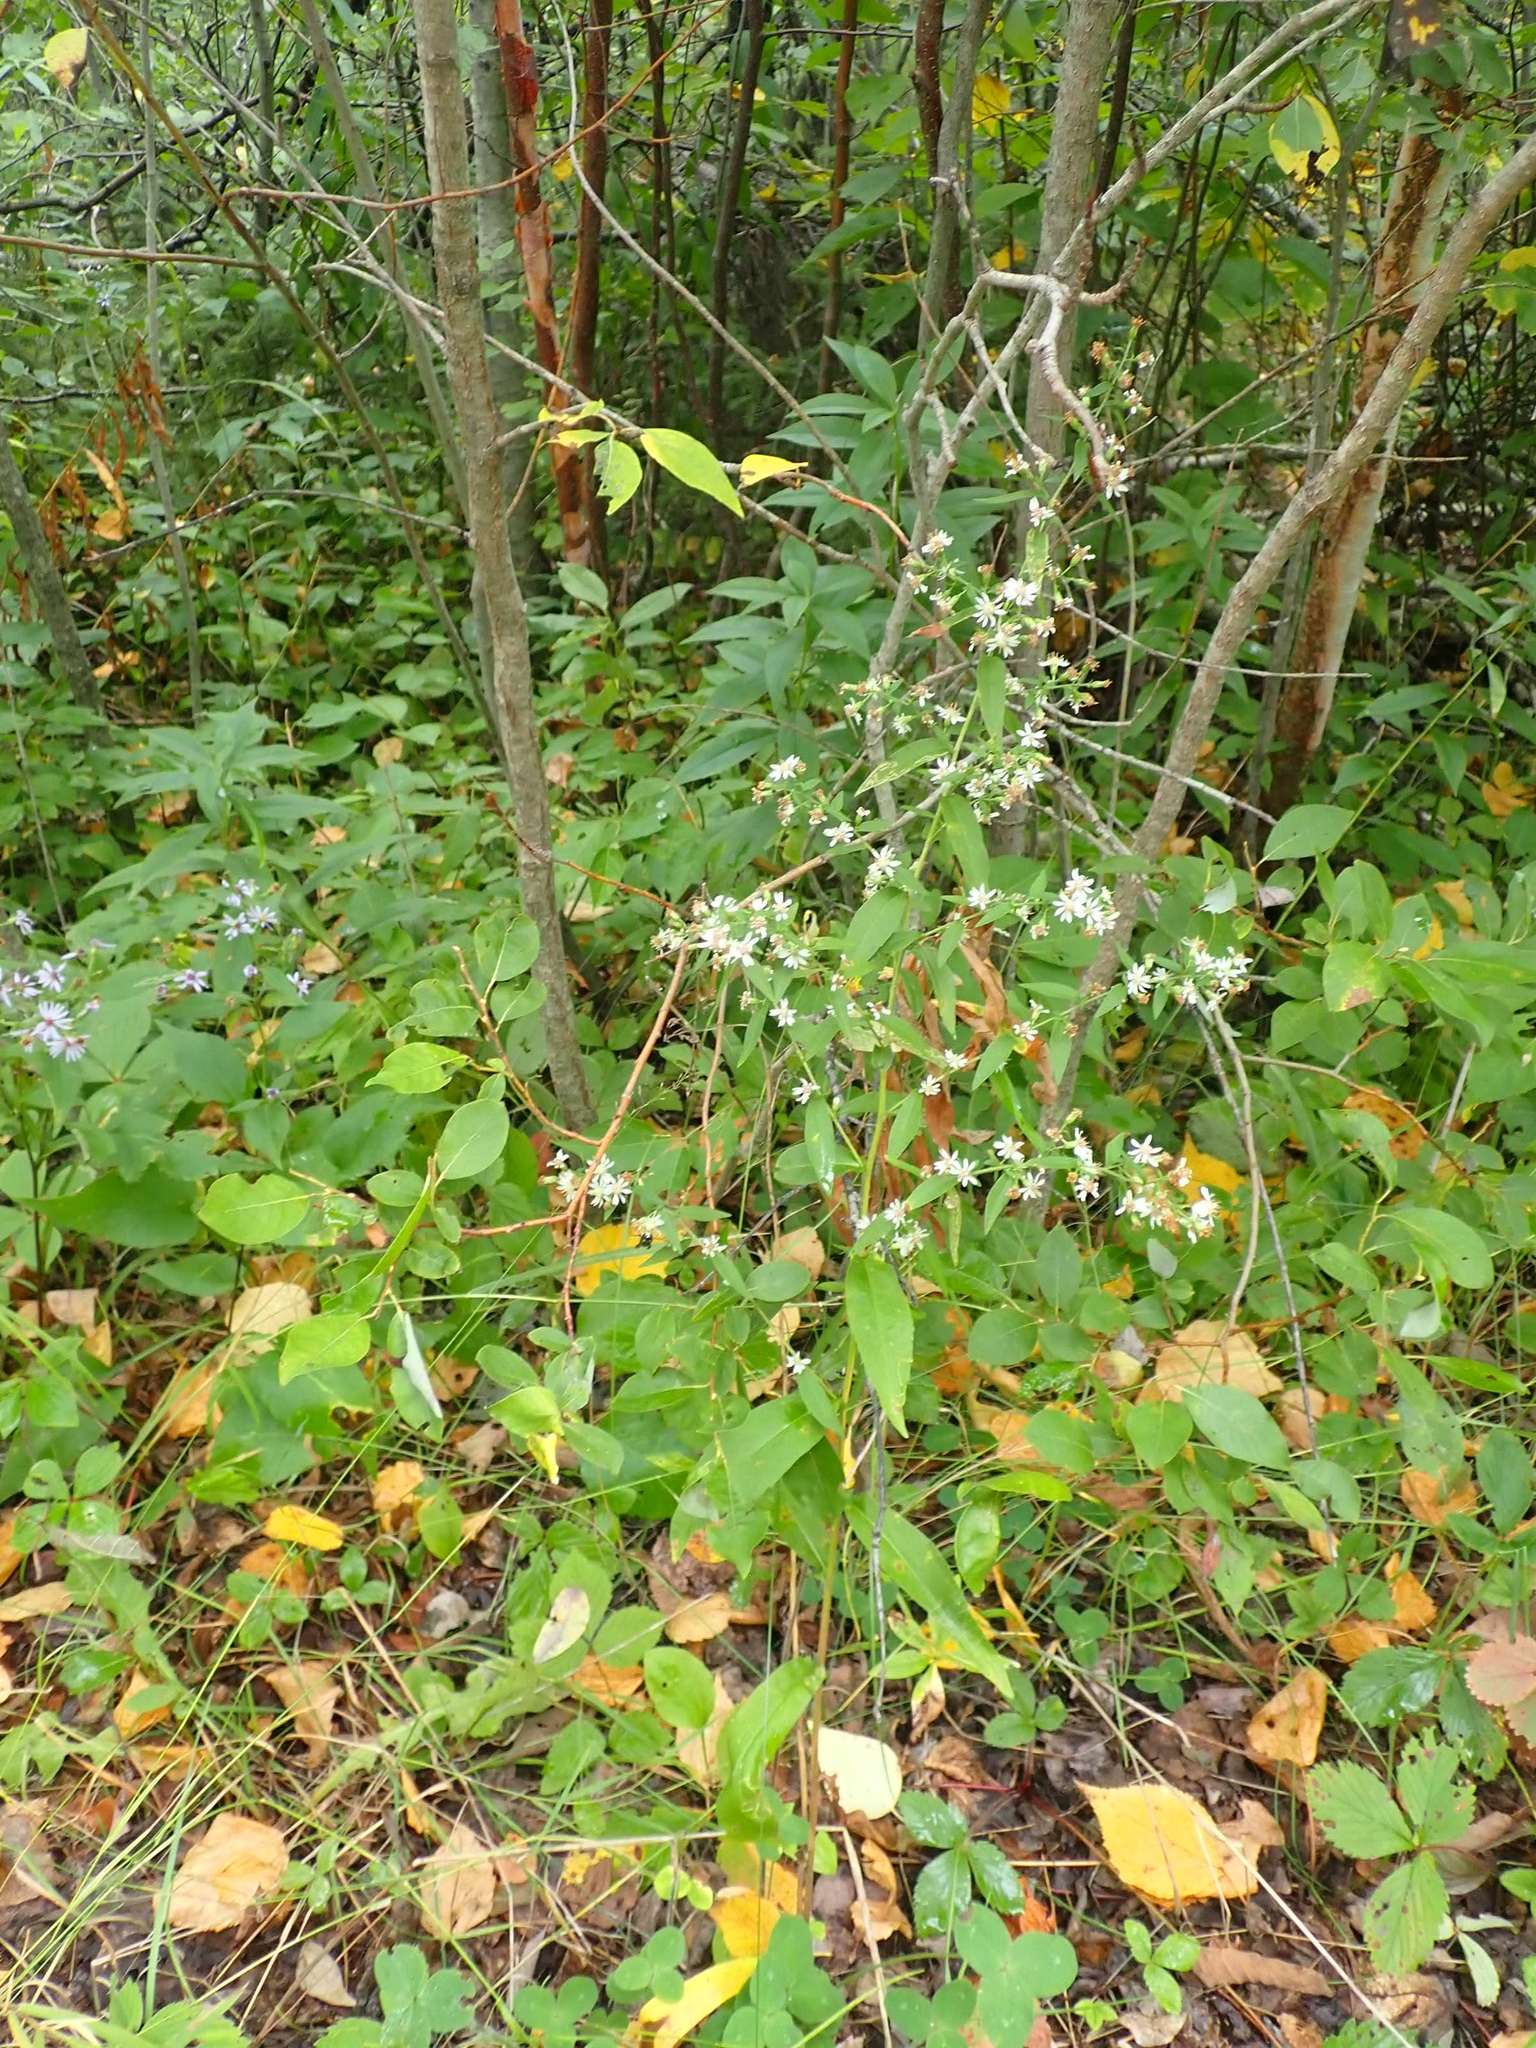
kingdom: Plantae
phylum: Tracheophyta
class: Magnoliopsida
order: Asterales
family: Asteraceae
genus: Symphyotrichum
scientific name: Symphyotrichum lateriflorum
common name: Calico aster
